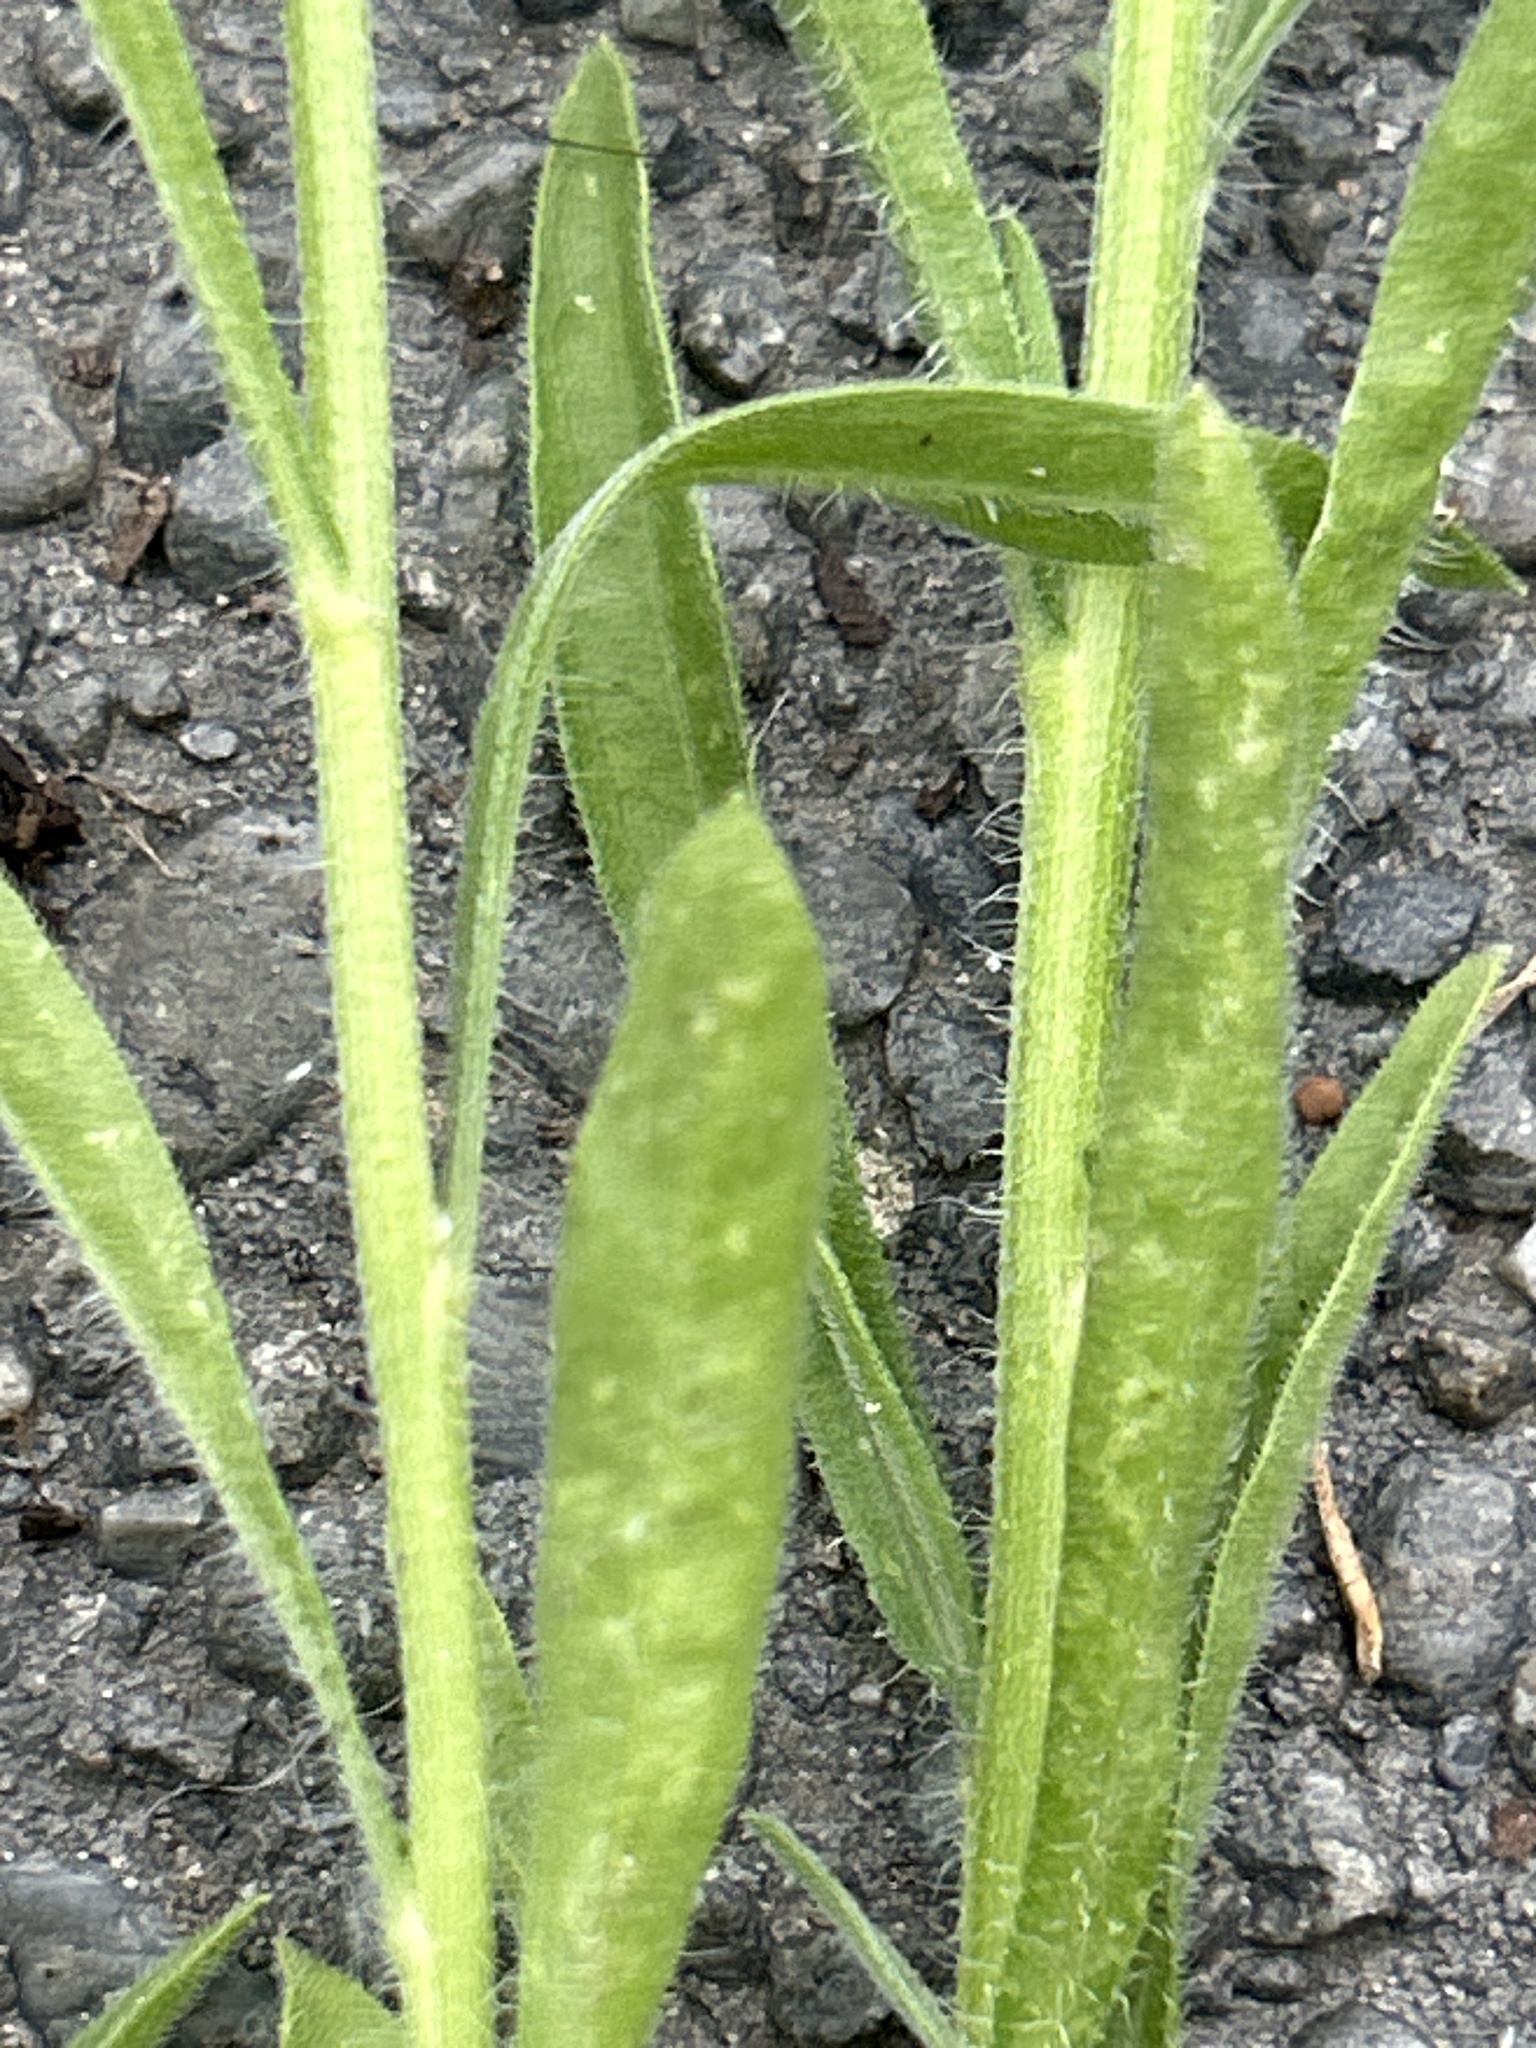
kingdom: Plantae
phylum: Tracheophyta
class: Magnoliopsida
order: Asterales
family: Asteraceae
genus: Erigeron
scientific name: Erigeron sumatrensis
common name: Daisy
